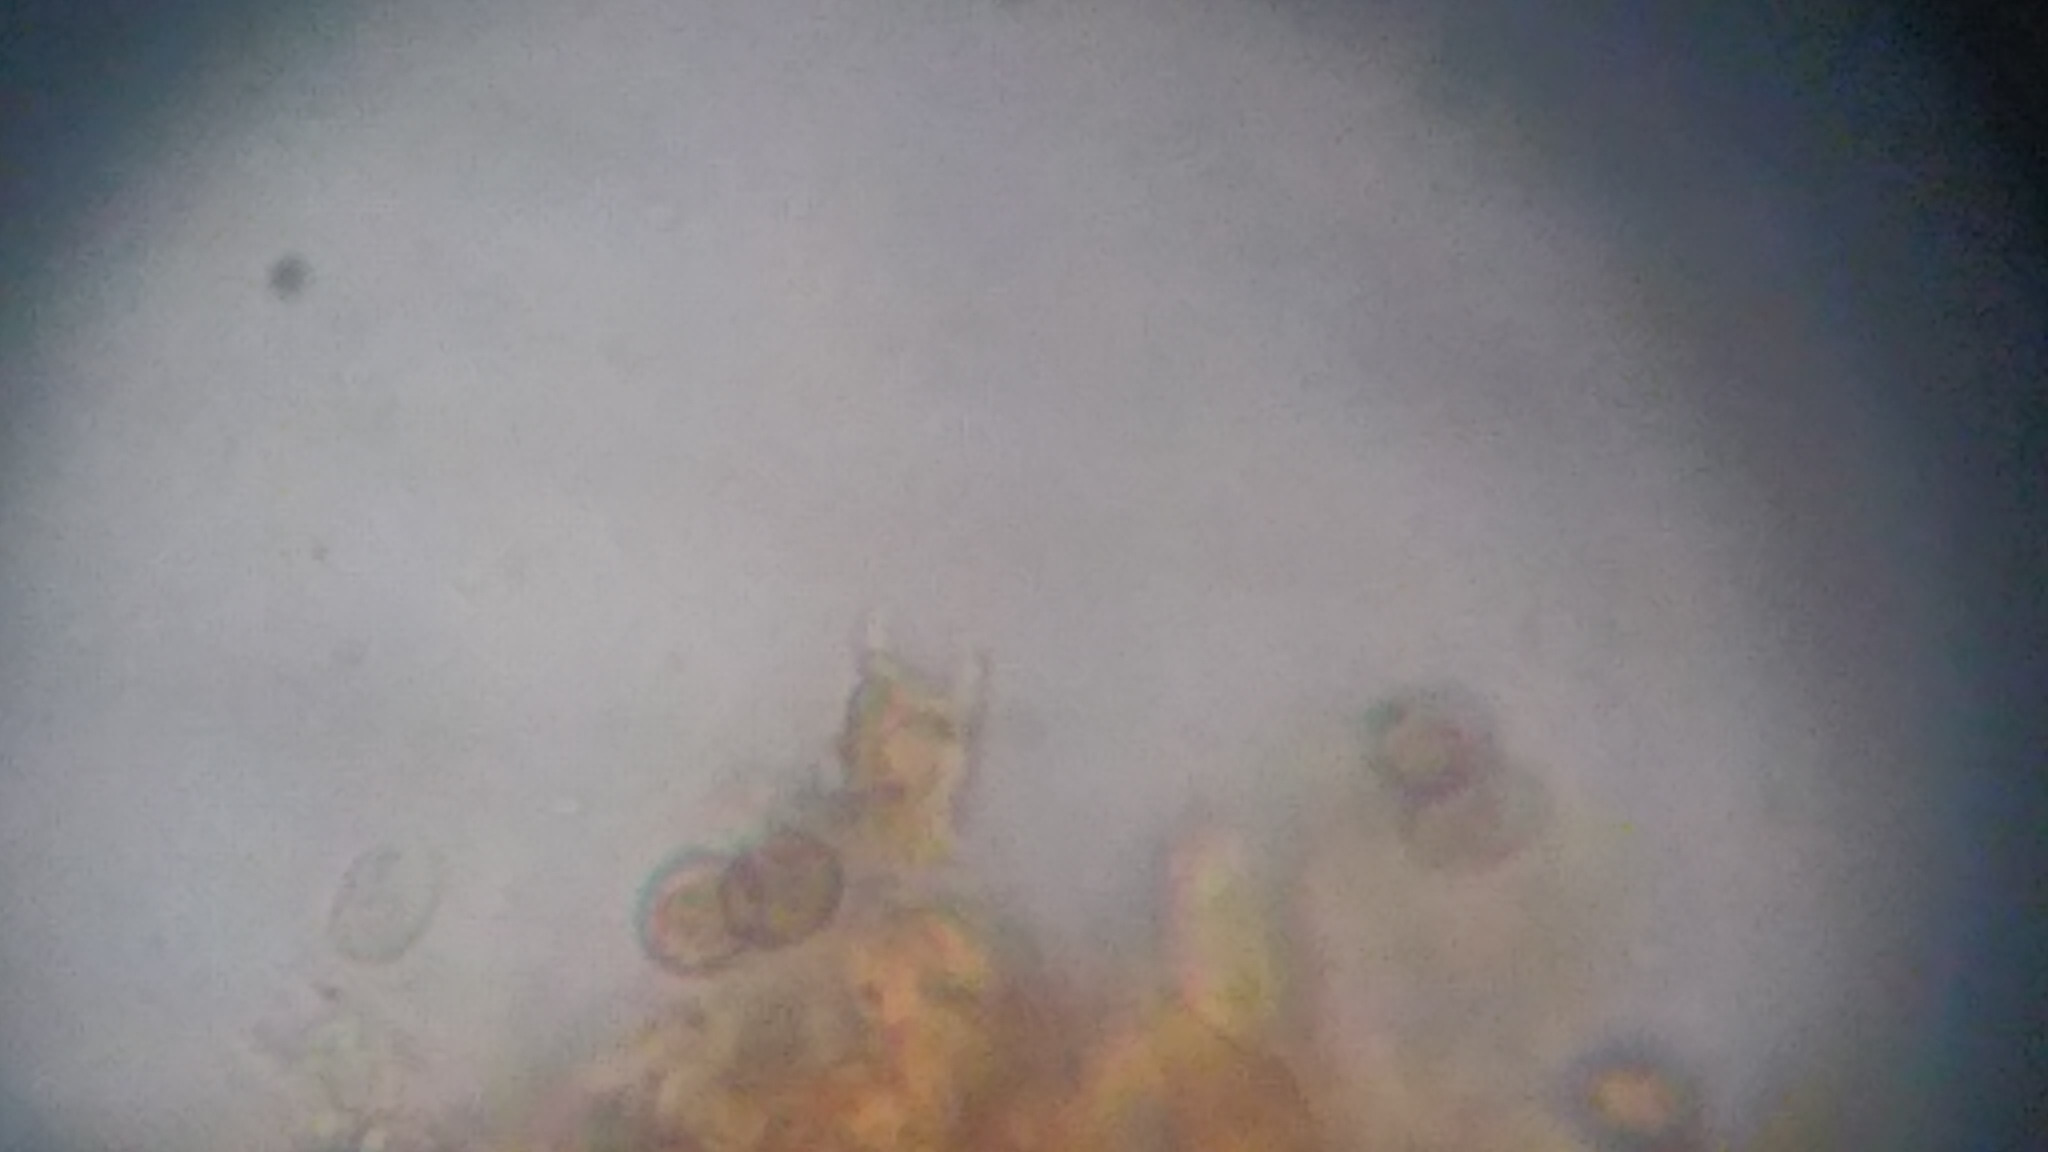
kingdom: Fungi
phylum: Basidiomycota
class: Agaricomycetes
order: Agaricales
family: Cortinariaceae
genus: Cortinarius
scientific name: Cortinarius harrisonii
